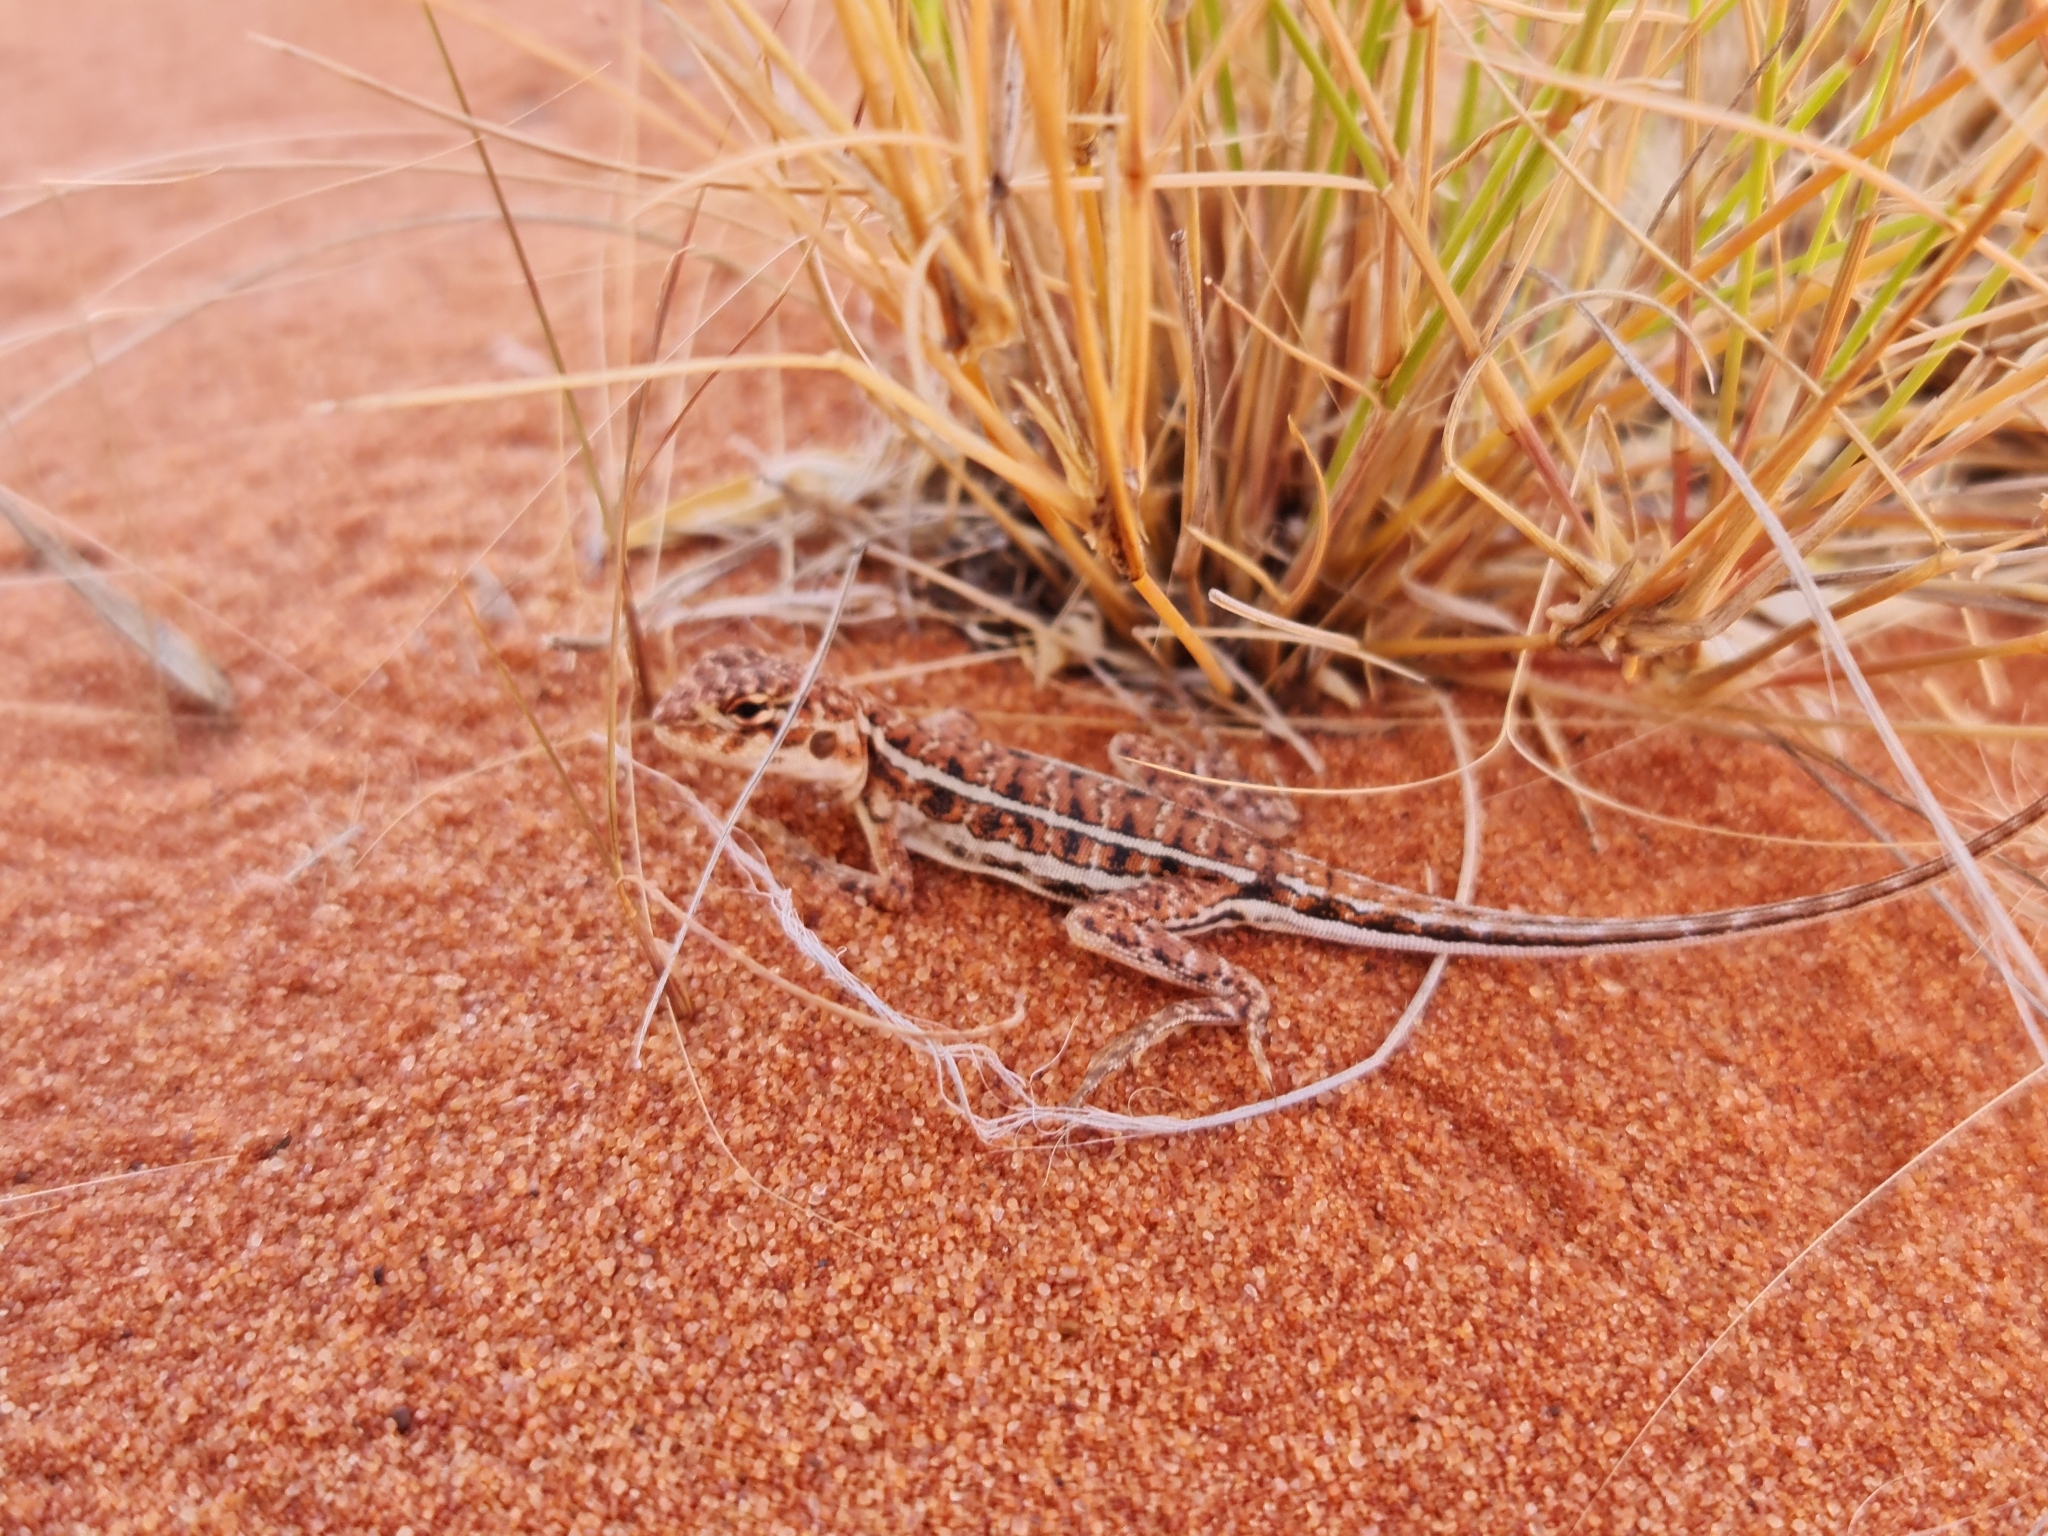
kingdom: Animalia
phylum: Chordata
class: Squamata
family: Agamidae
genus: Ctenophorus
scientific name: Ctenophorus
